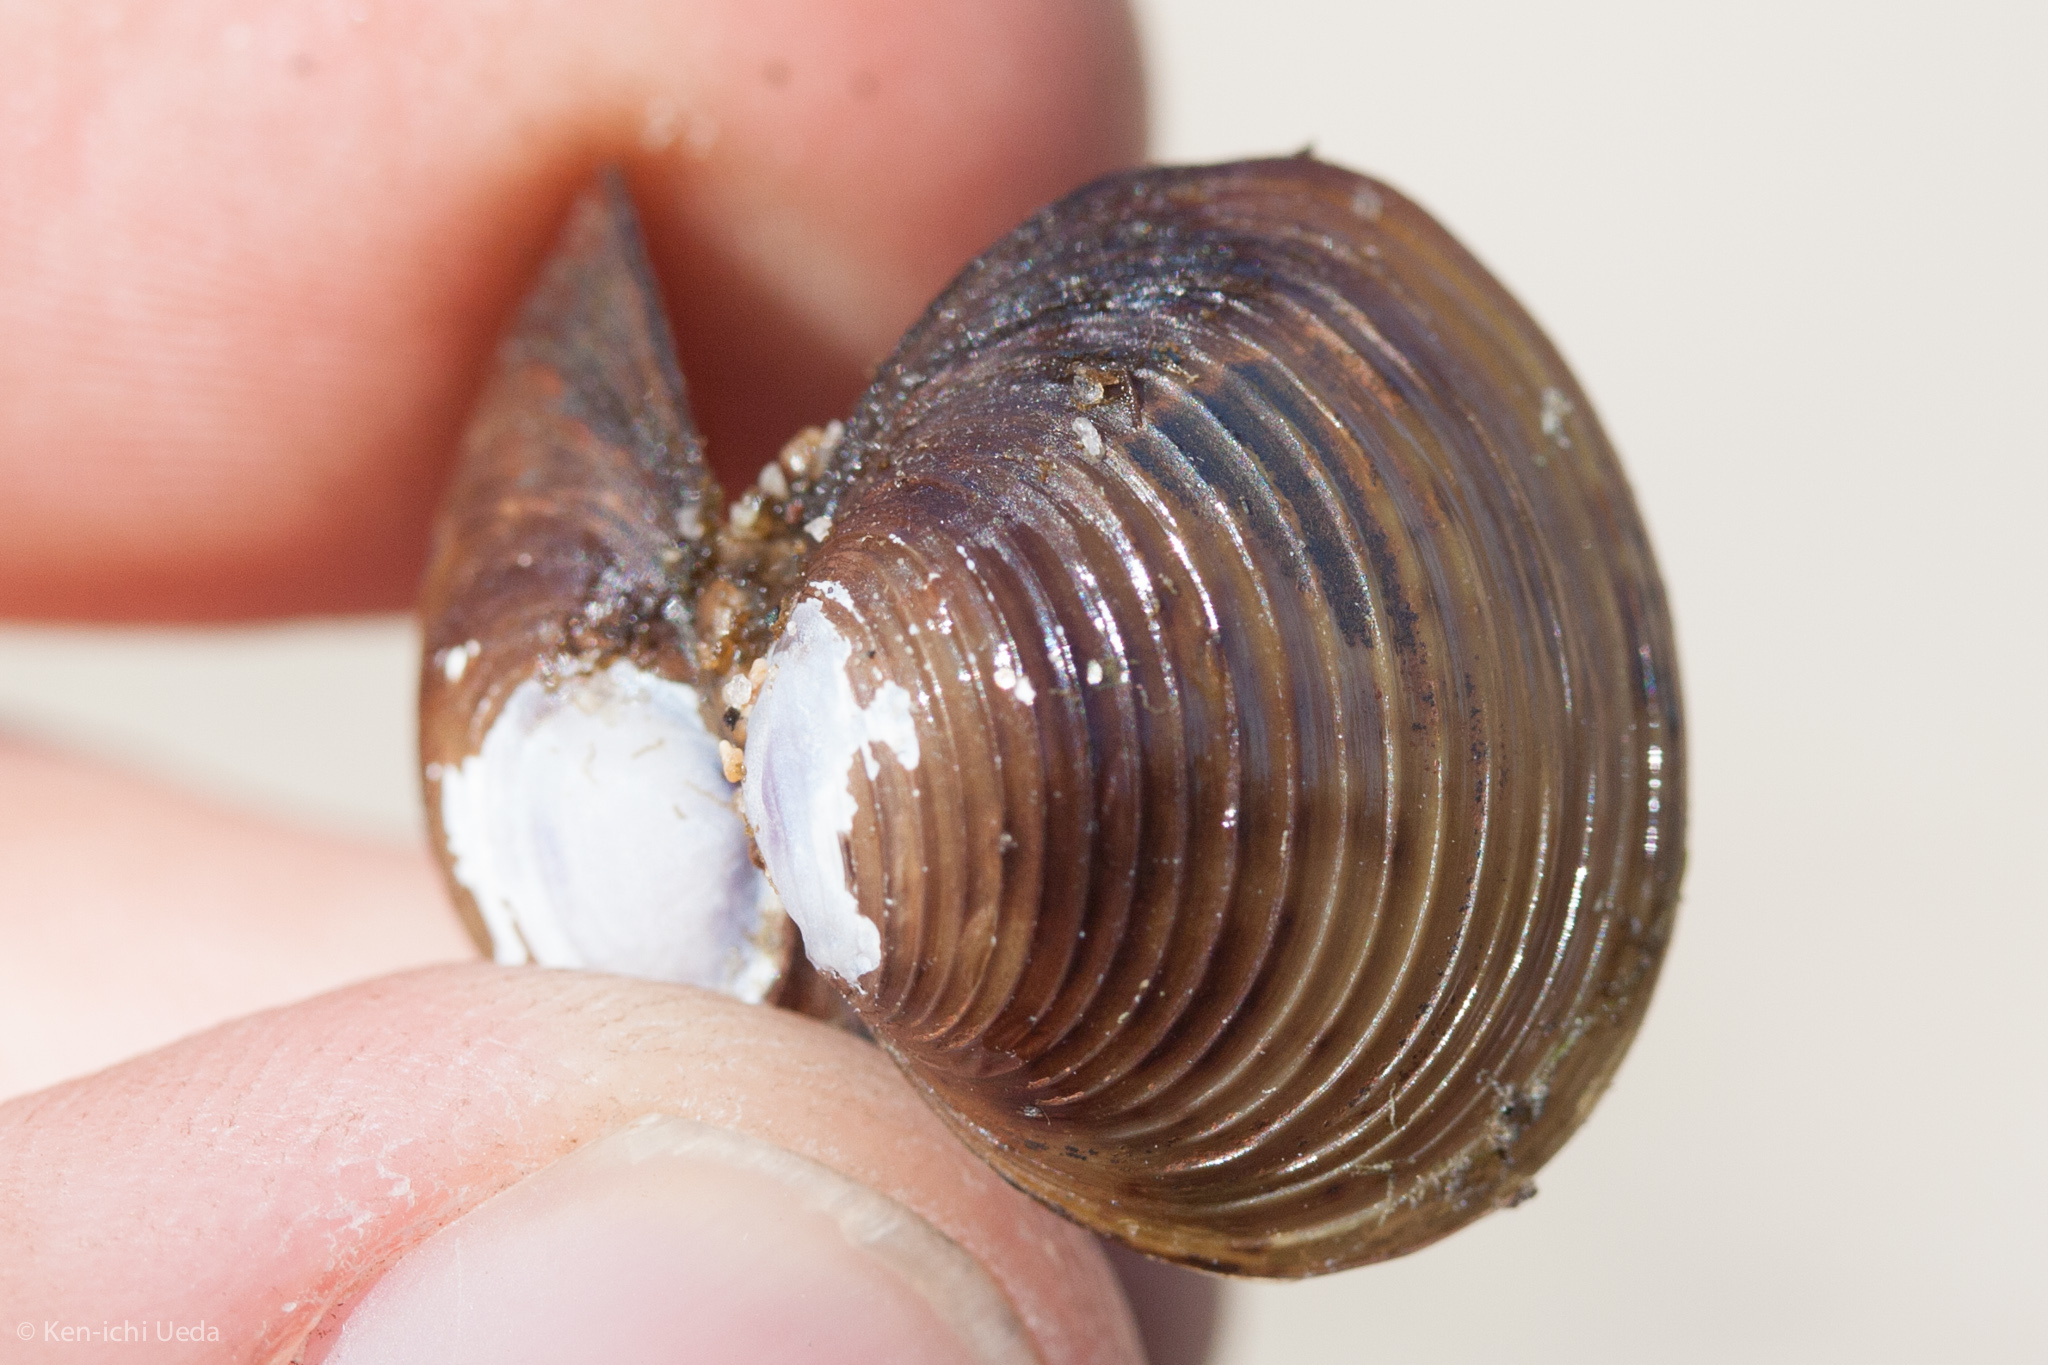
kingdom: Animalia
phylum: Mollusca
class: Bivalvia
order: Venerida
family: Cyrenidae
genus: Corbicula
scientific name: Corbicula fluminea
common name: Asian clam
